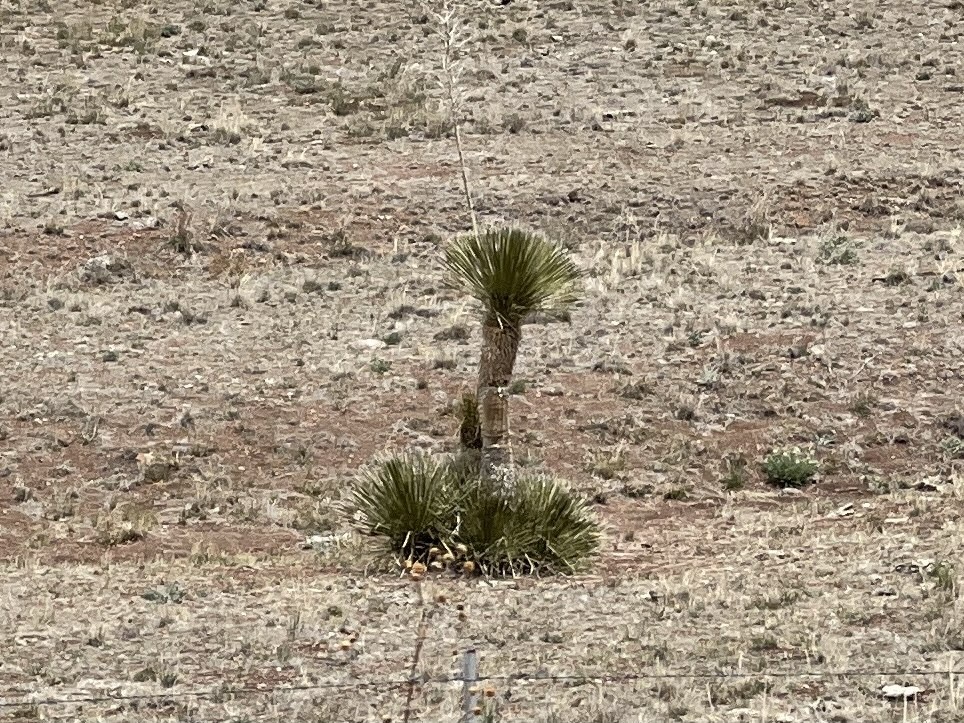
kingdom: Plantae
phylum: Tracheophyta
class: Liliopsida
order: Asparagales
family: Asparagaceae
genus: Yucca
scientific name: Yucca elata
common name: Palmella
